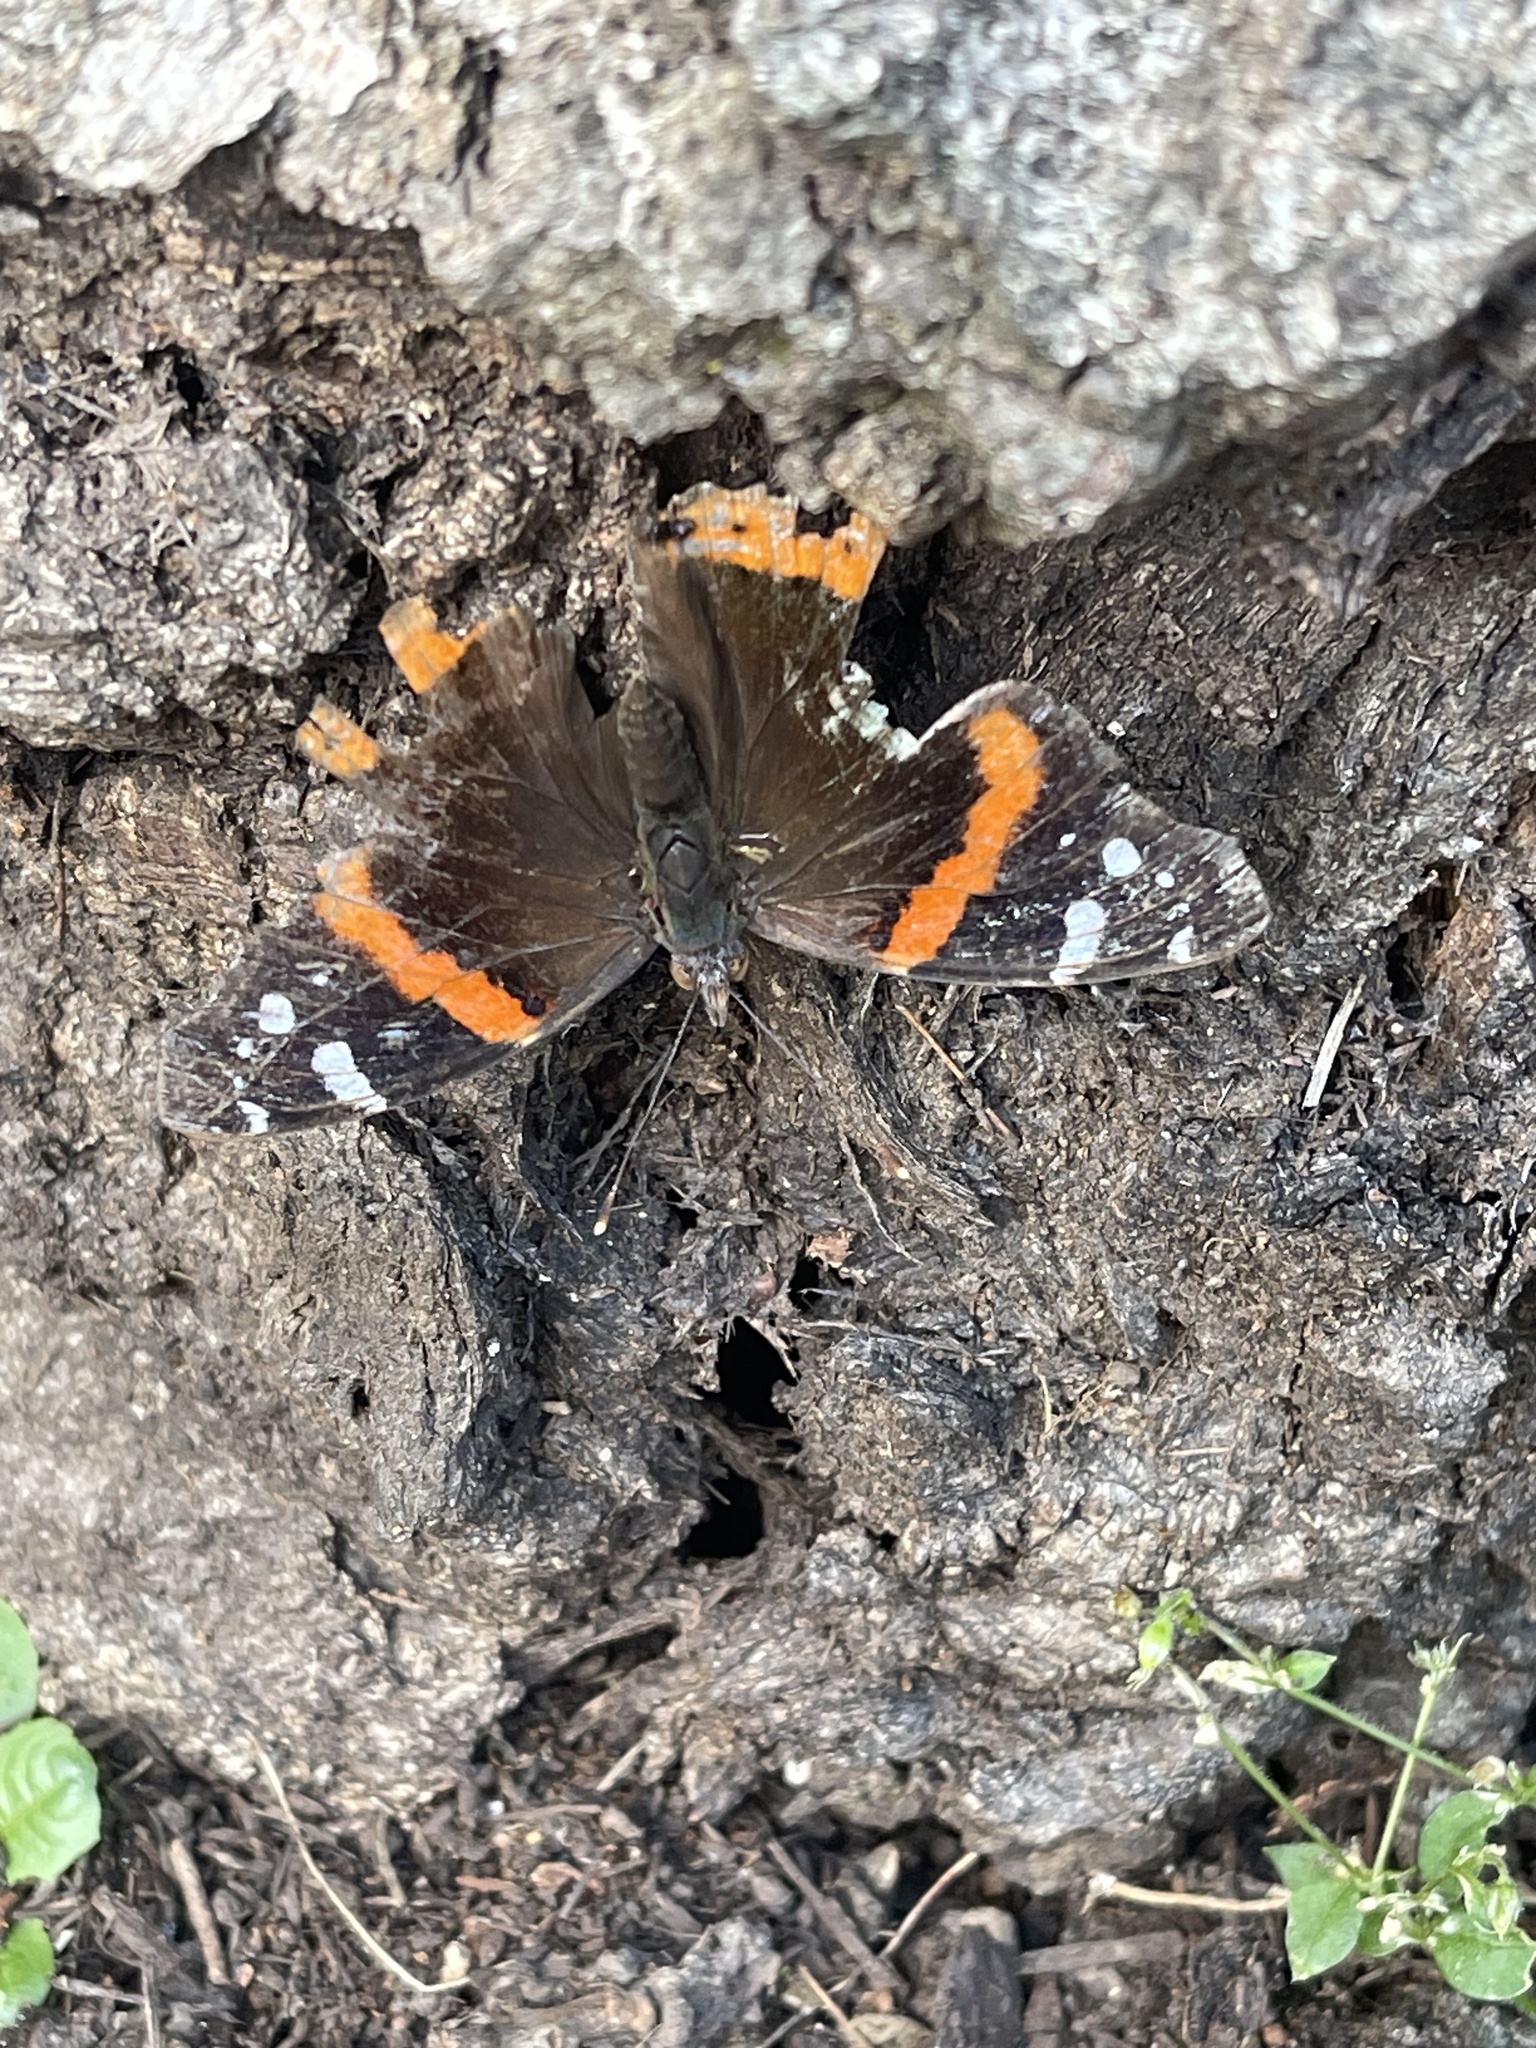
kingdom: Animalia
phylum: Arthropoda
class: Insecta
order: Lepidoptera
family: Nymphalidae
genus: Vanessa
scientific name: Vanessa atalanta
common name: Red admiral
